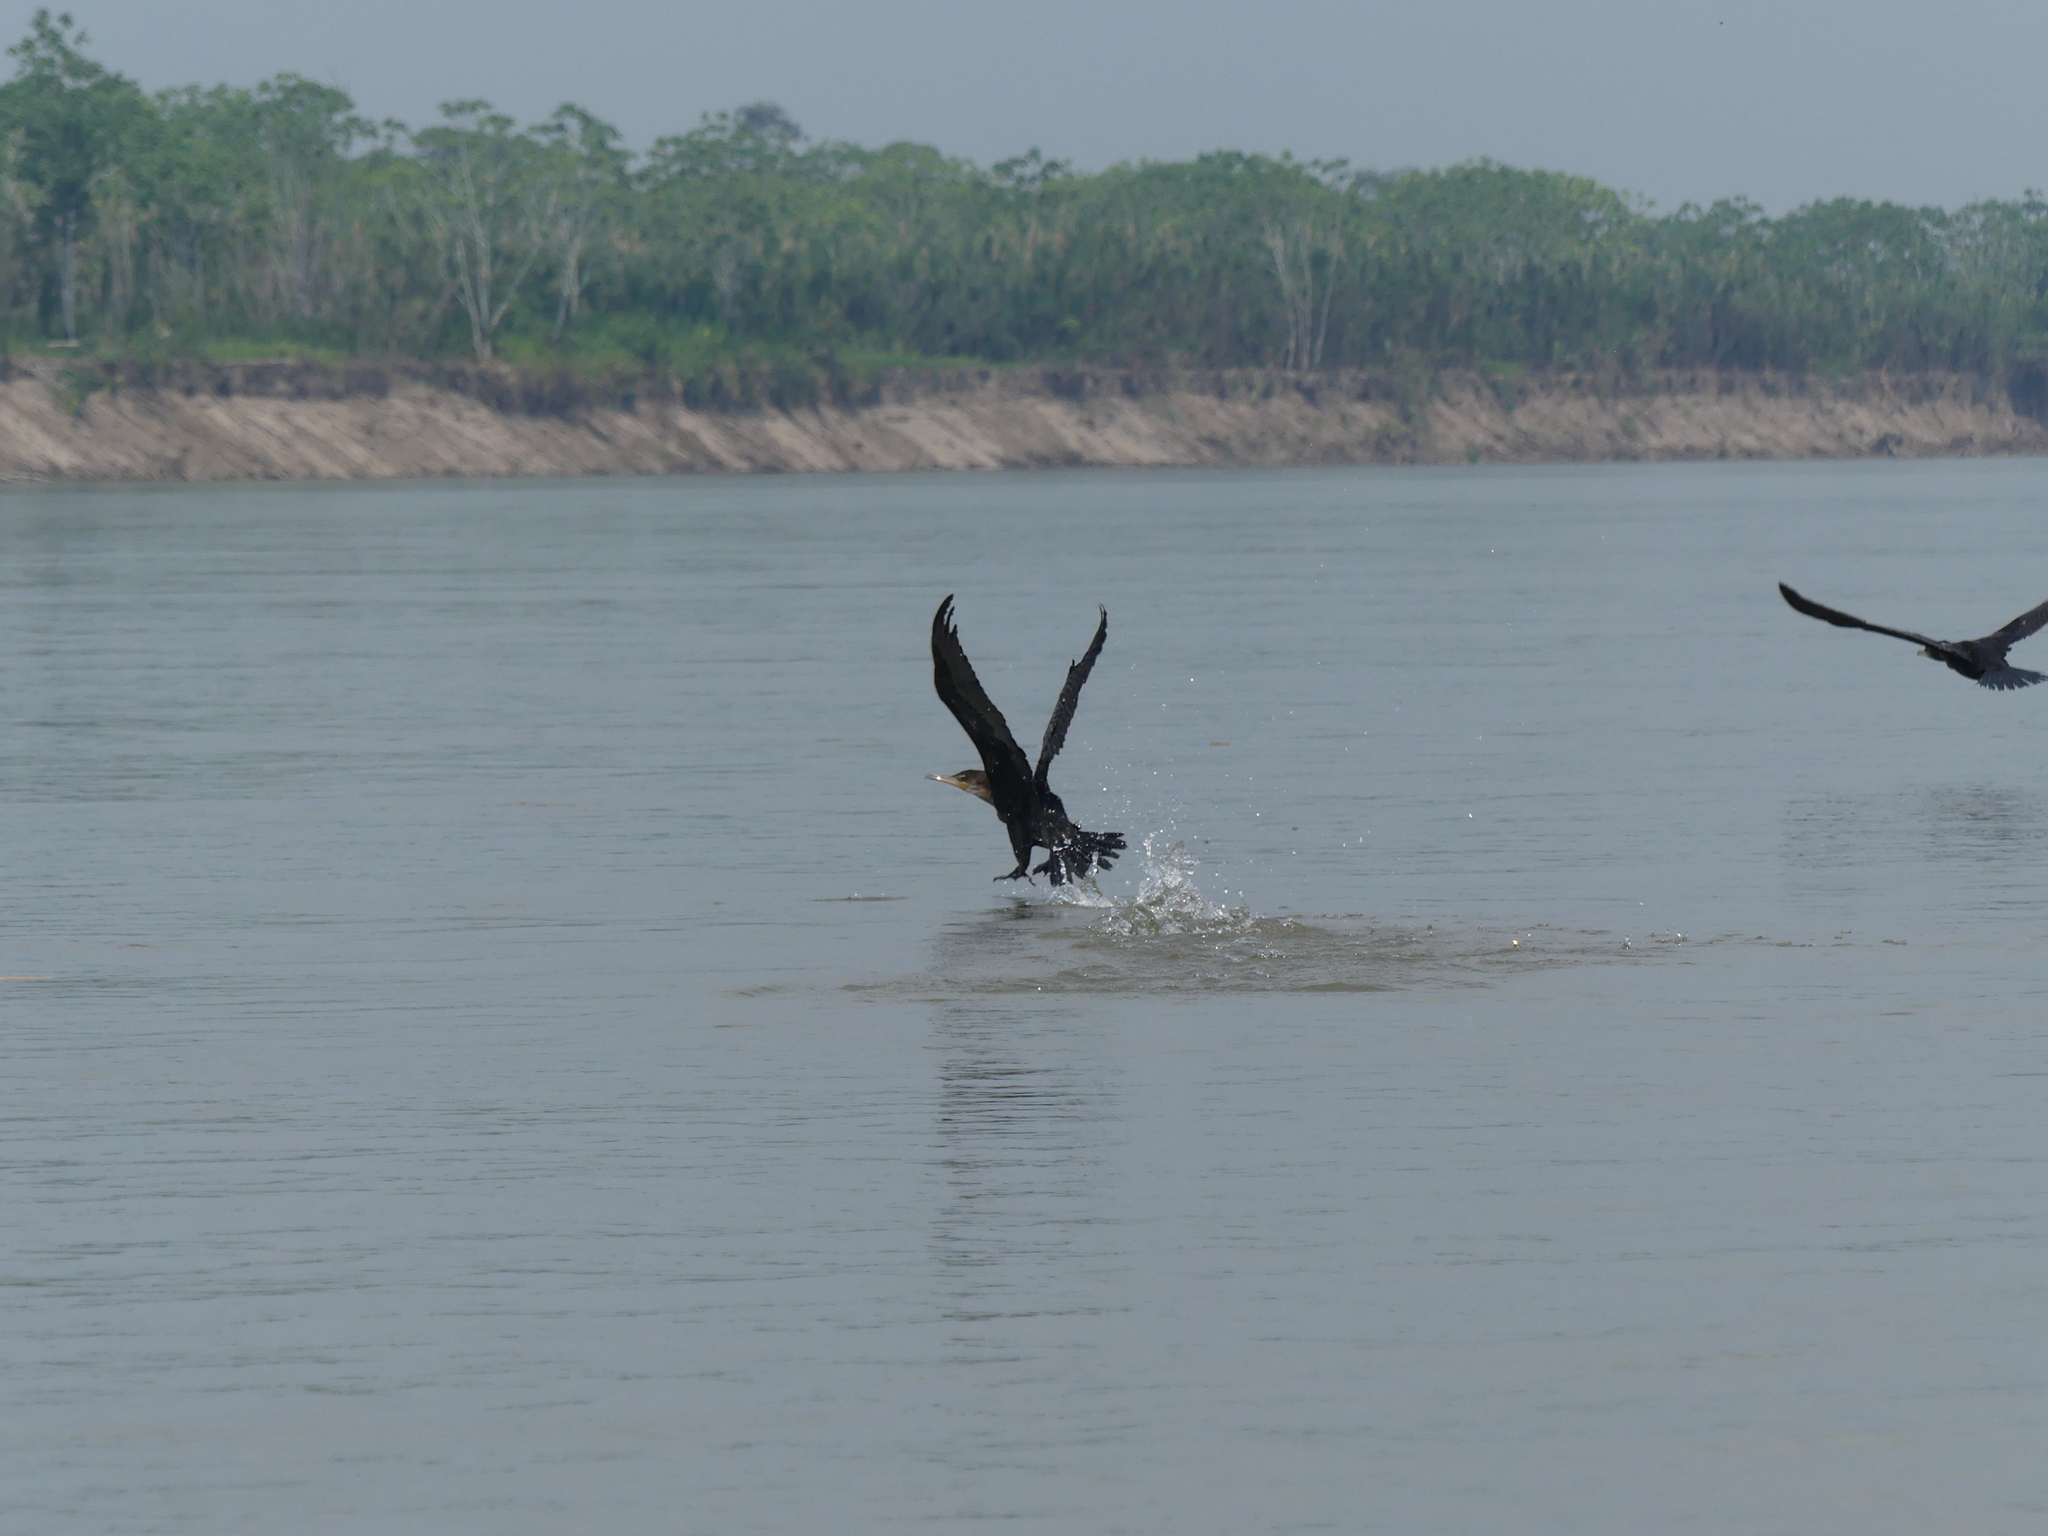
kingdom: Animalia
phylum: Chordata
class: Aves
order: Suliformes
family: Phalacrocoracidae
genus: Phalacrocorax
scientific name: Phalacrocorax brasilianus
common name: Neotropic cormorant
